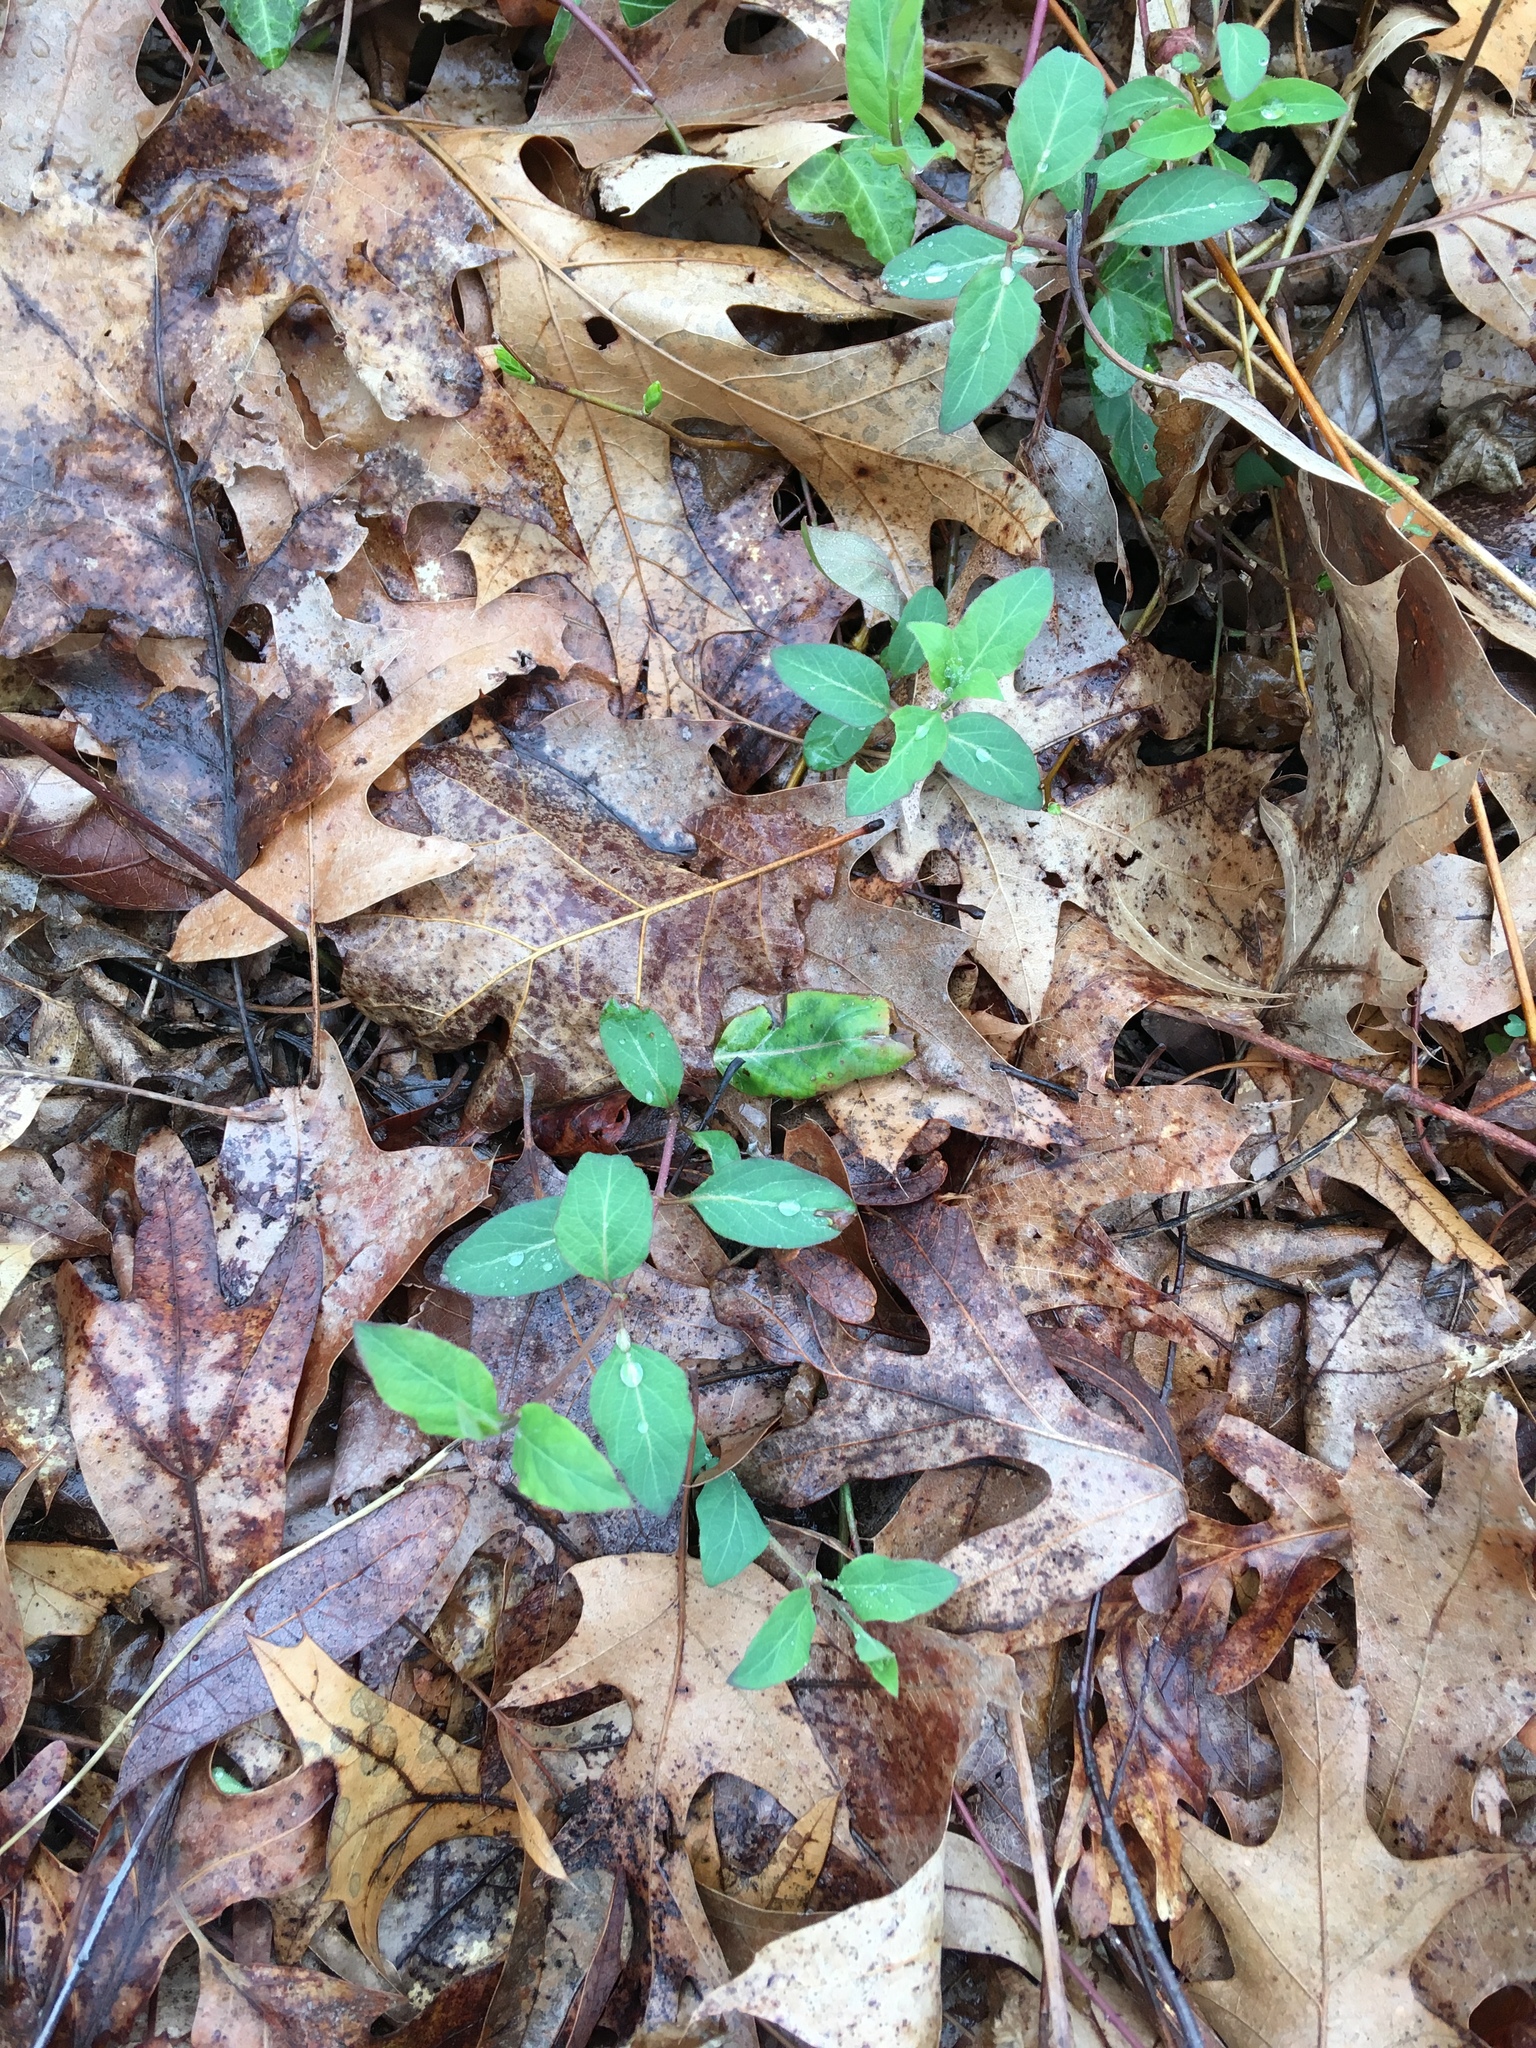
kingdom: Plantae
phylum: Tracheophyta
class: Magnoliopsida
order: Dipsacales
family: Caprifoliaceae
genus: Lonicera
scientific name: Lonicera japonica
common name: Japanese honeysuckle
